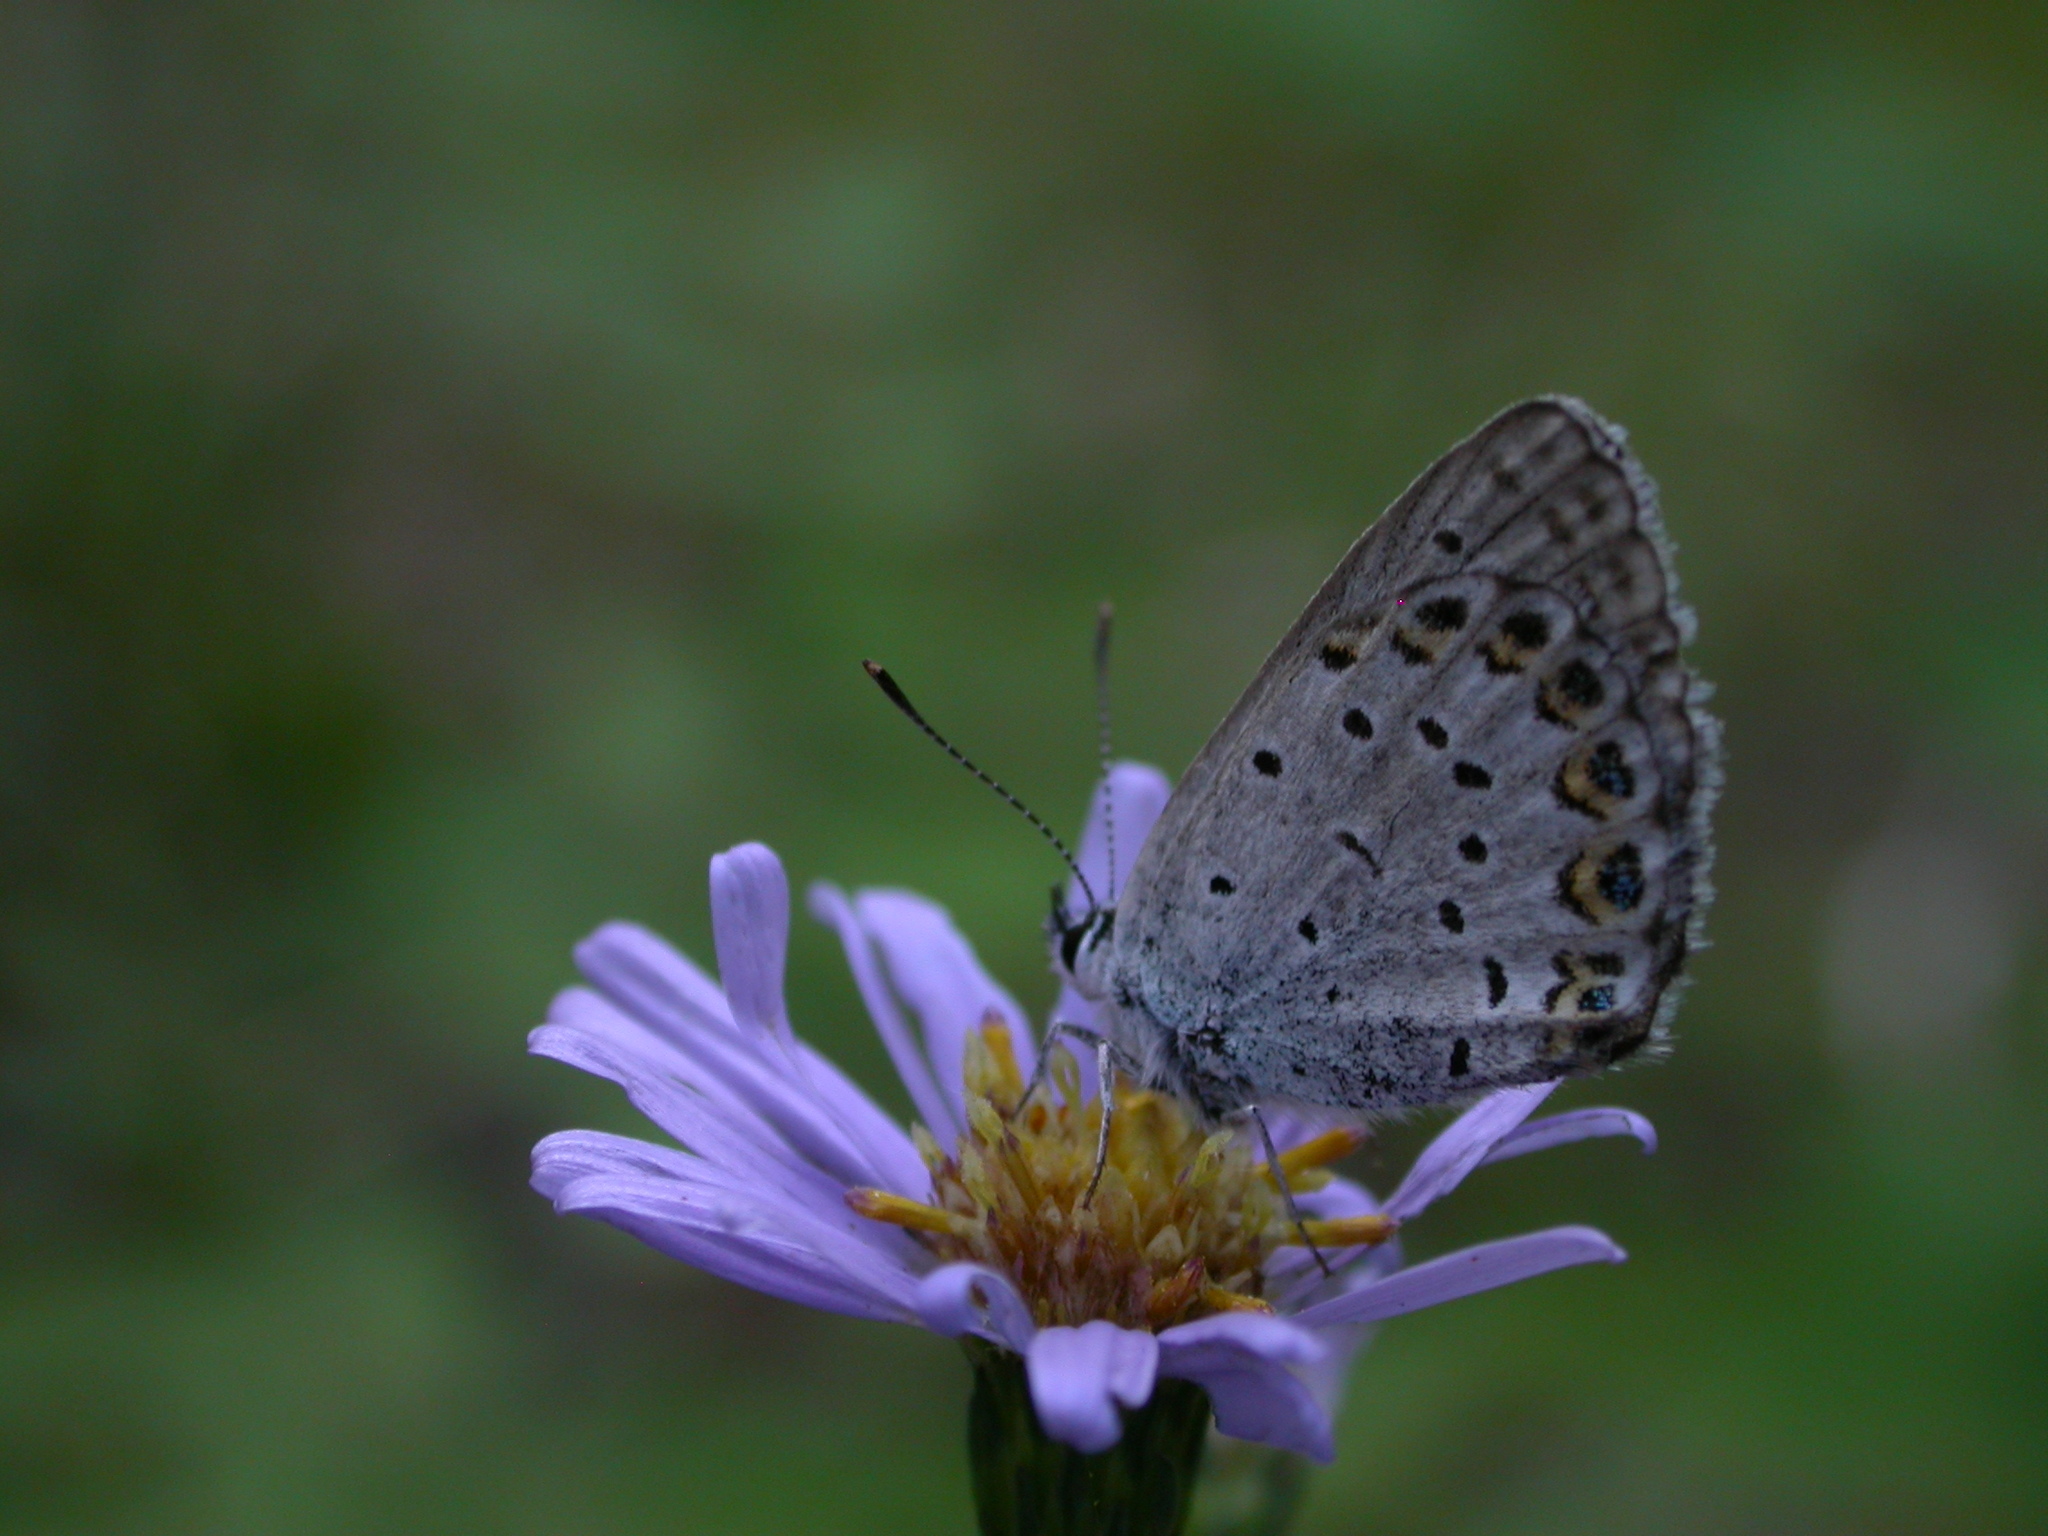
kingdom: Animalia
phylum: Arthropoda
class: Insecta
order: Lepidoptera
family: Lycaenidae
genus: Lycaeides
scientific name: Lycaeides idas
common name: Northern blue
